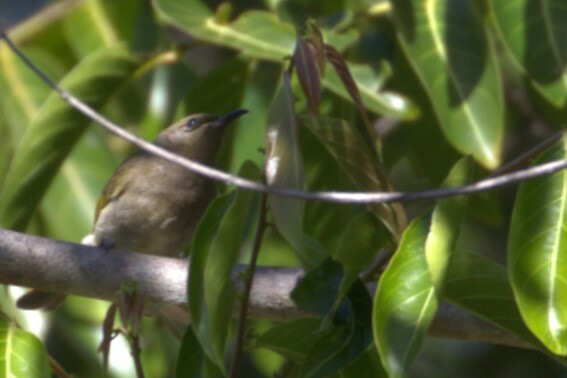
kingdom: Animalia
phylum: Chordata
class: Aves
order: Passeriformes
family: Meliphagidae
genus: Lichmera
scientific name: Lichmera indistincta
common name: Brown honeyeater
